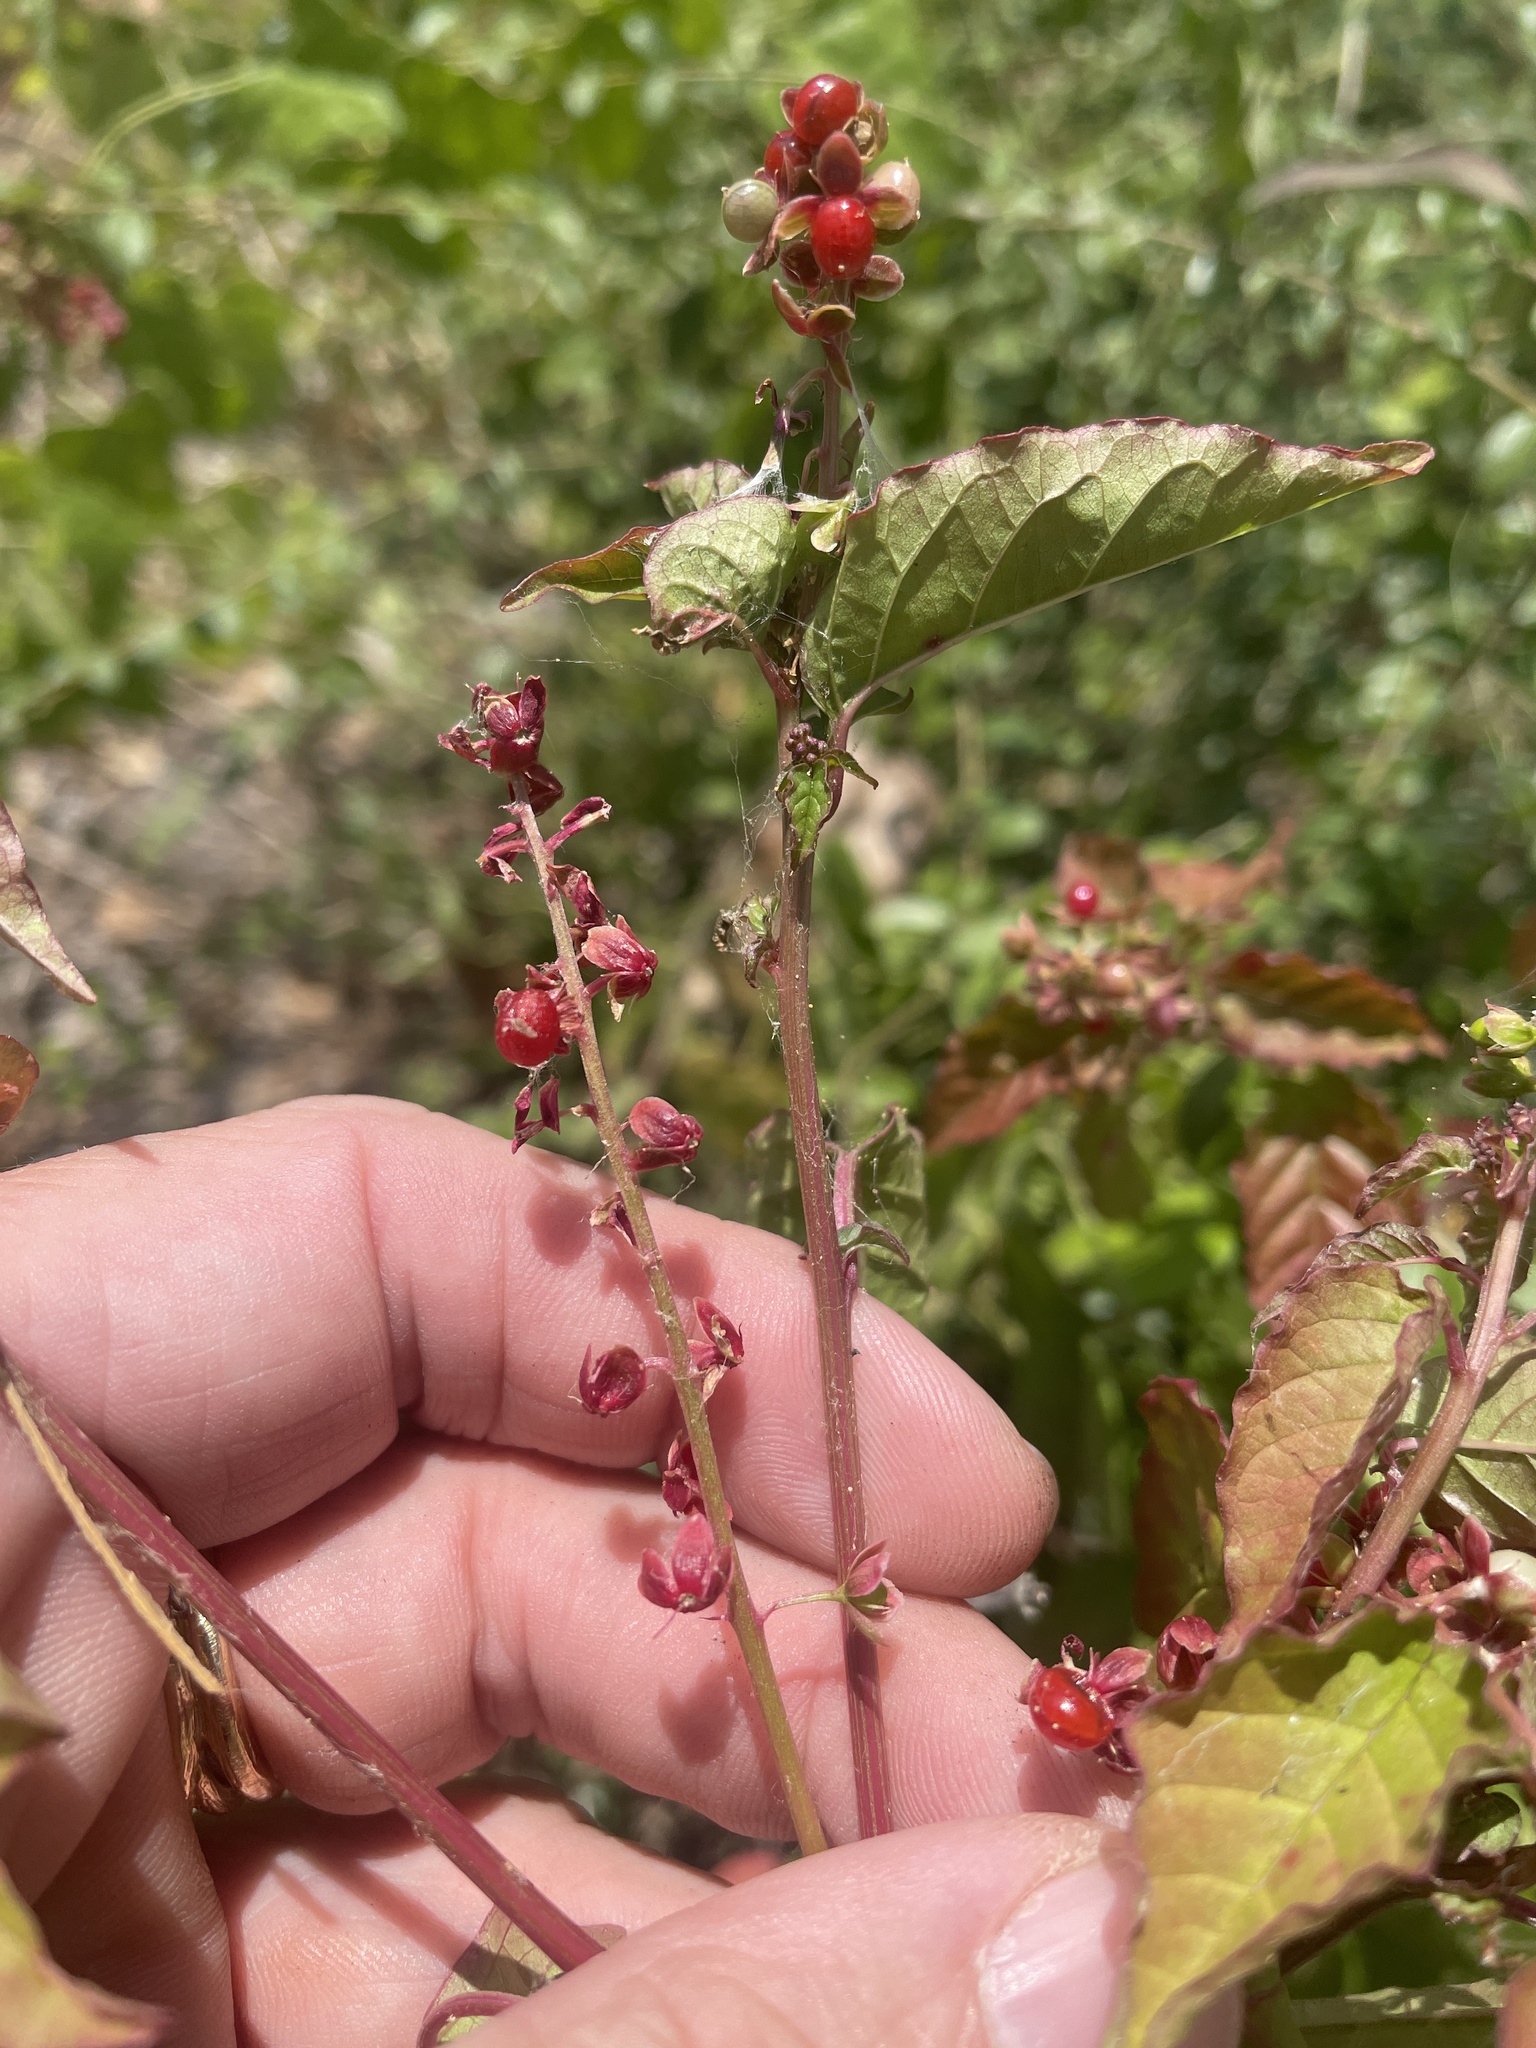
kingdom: Plantae
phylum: Tracheophyta
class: Magnoliopsida
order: Caryophyllales
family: Phytolaccaceae
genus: Rivina
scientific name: Rivina humilis
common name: Rougeplant
